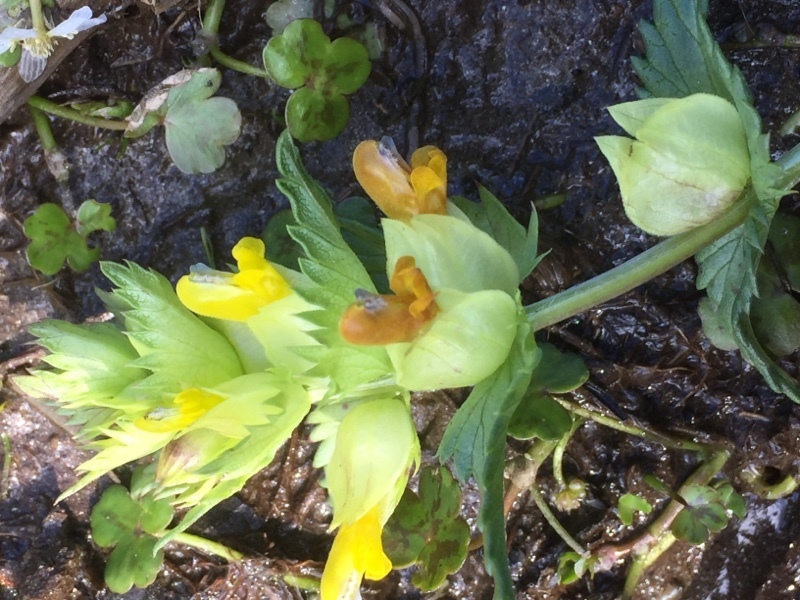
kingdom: Plantae
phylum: Tracheophyta
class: Magnoliopsida
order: Lamiales
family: Orobanchaceae
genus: Rhinanthus
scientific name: Rhinanthus minor
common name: Yellow-rattle
